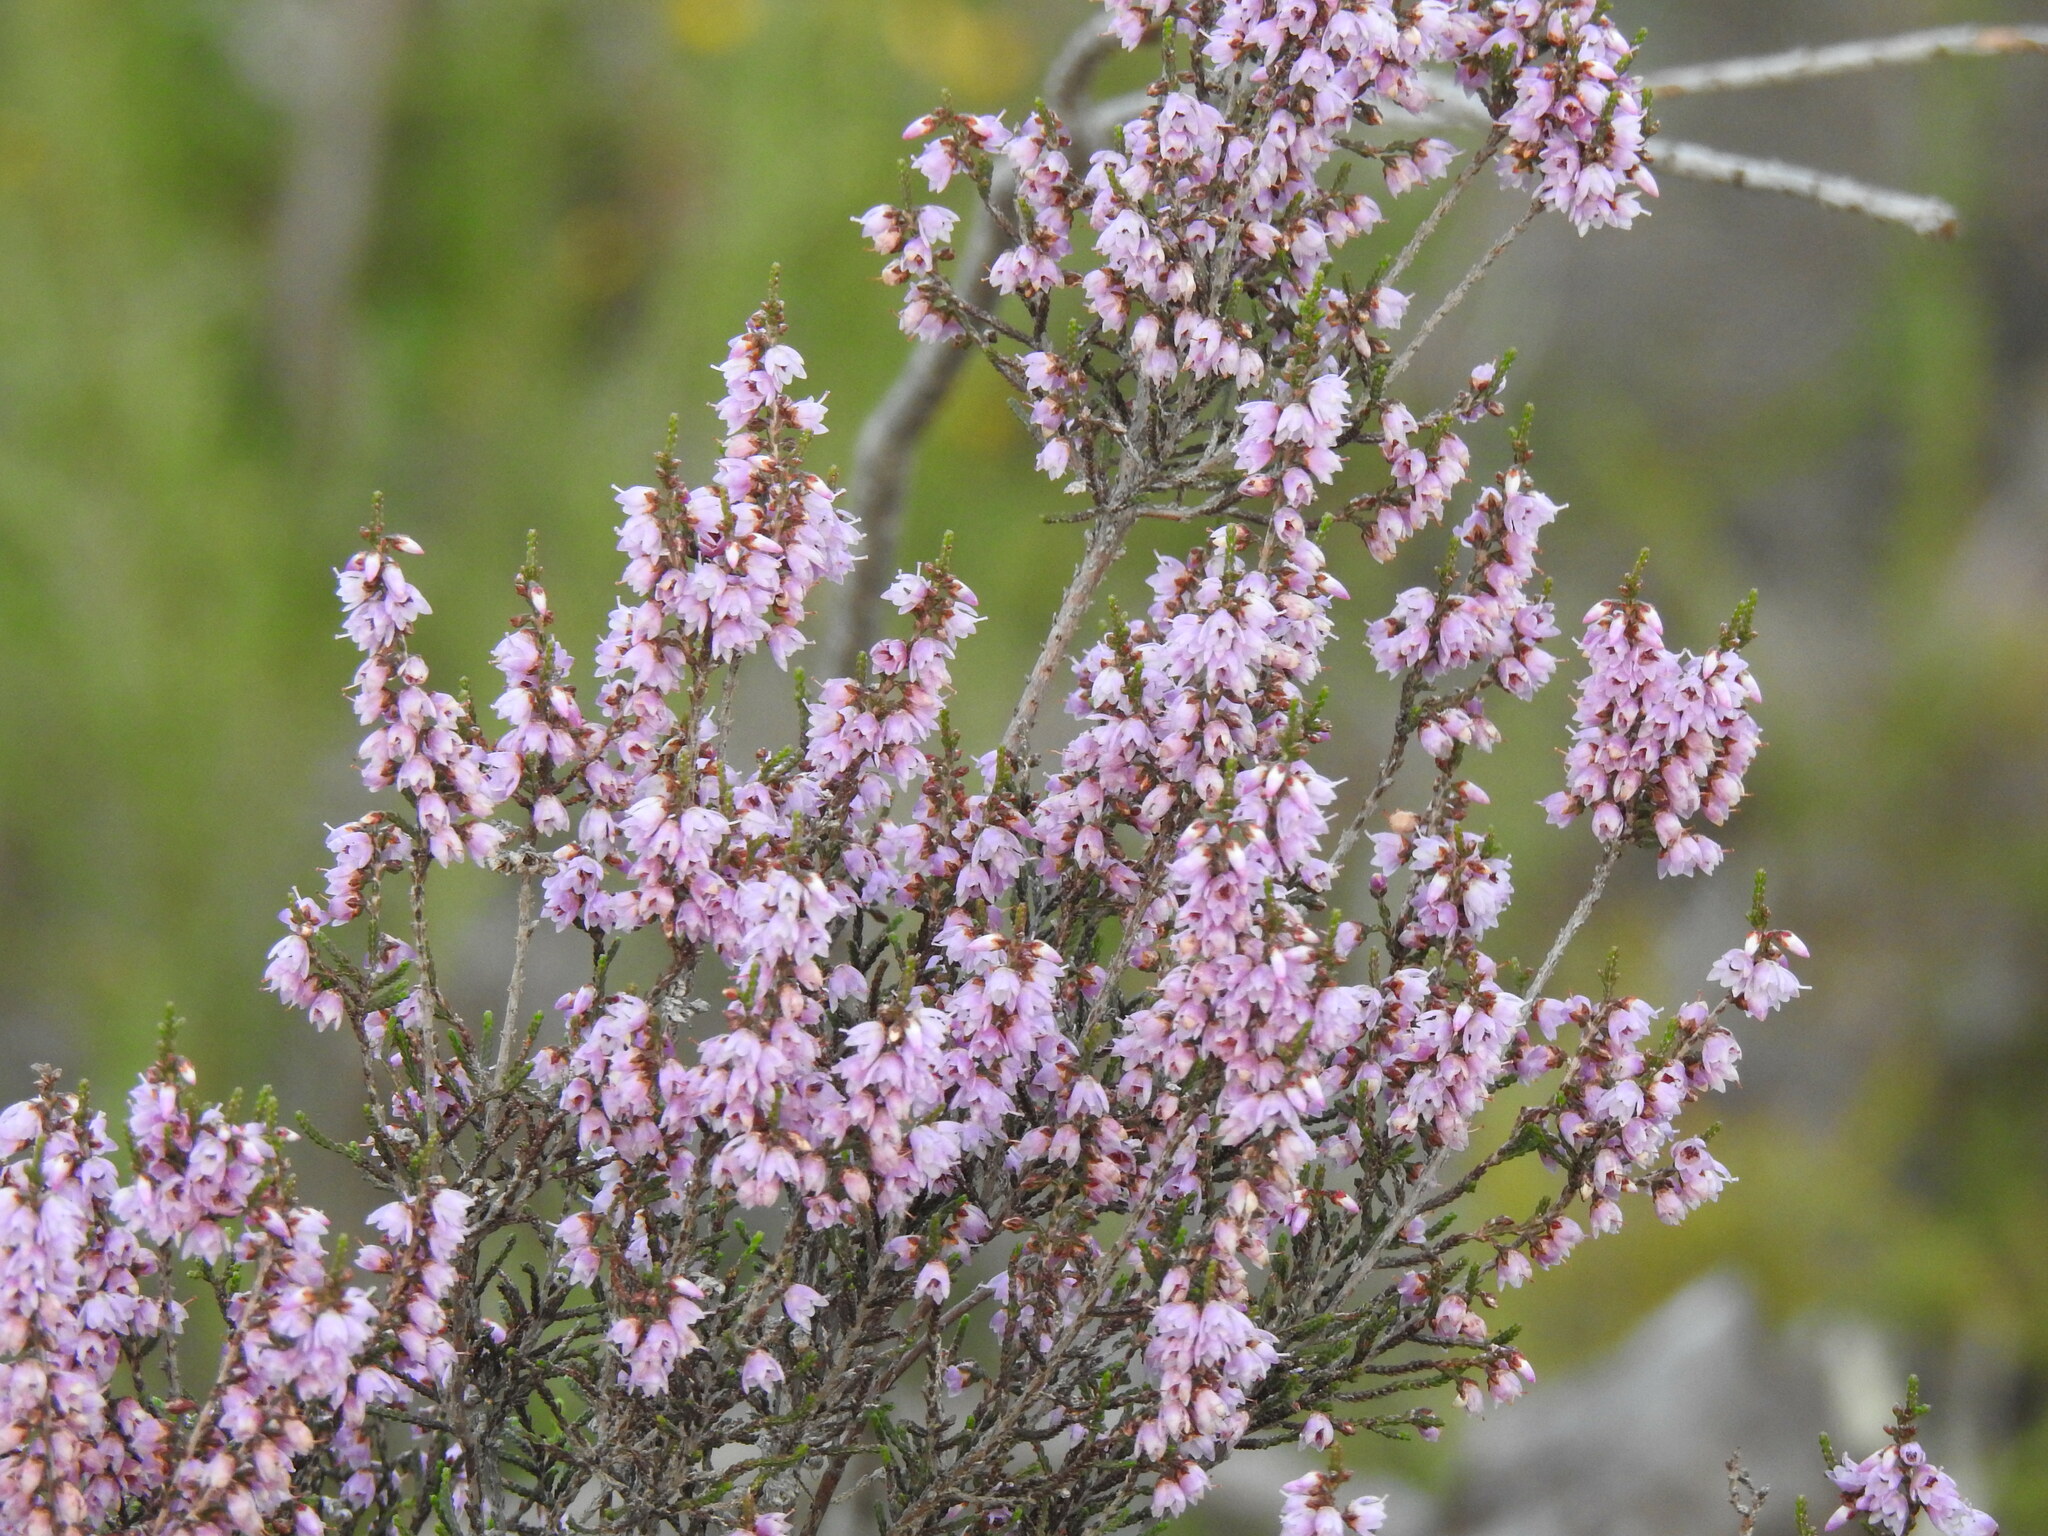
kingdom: Plantae
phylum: Tracheophyta
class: Magnoliopsida
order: Ericales
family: Ericaceae
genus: Calluna
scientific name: Calluna vulgaris
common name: Heather
